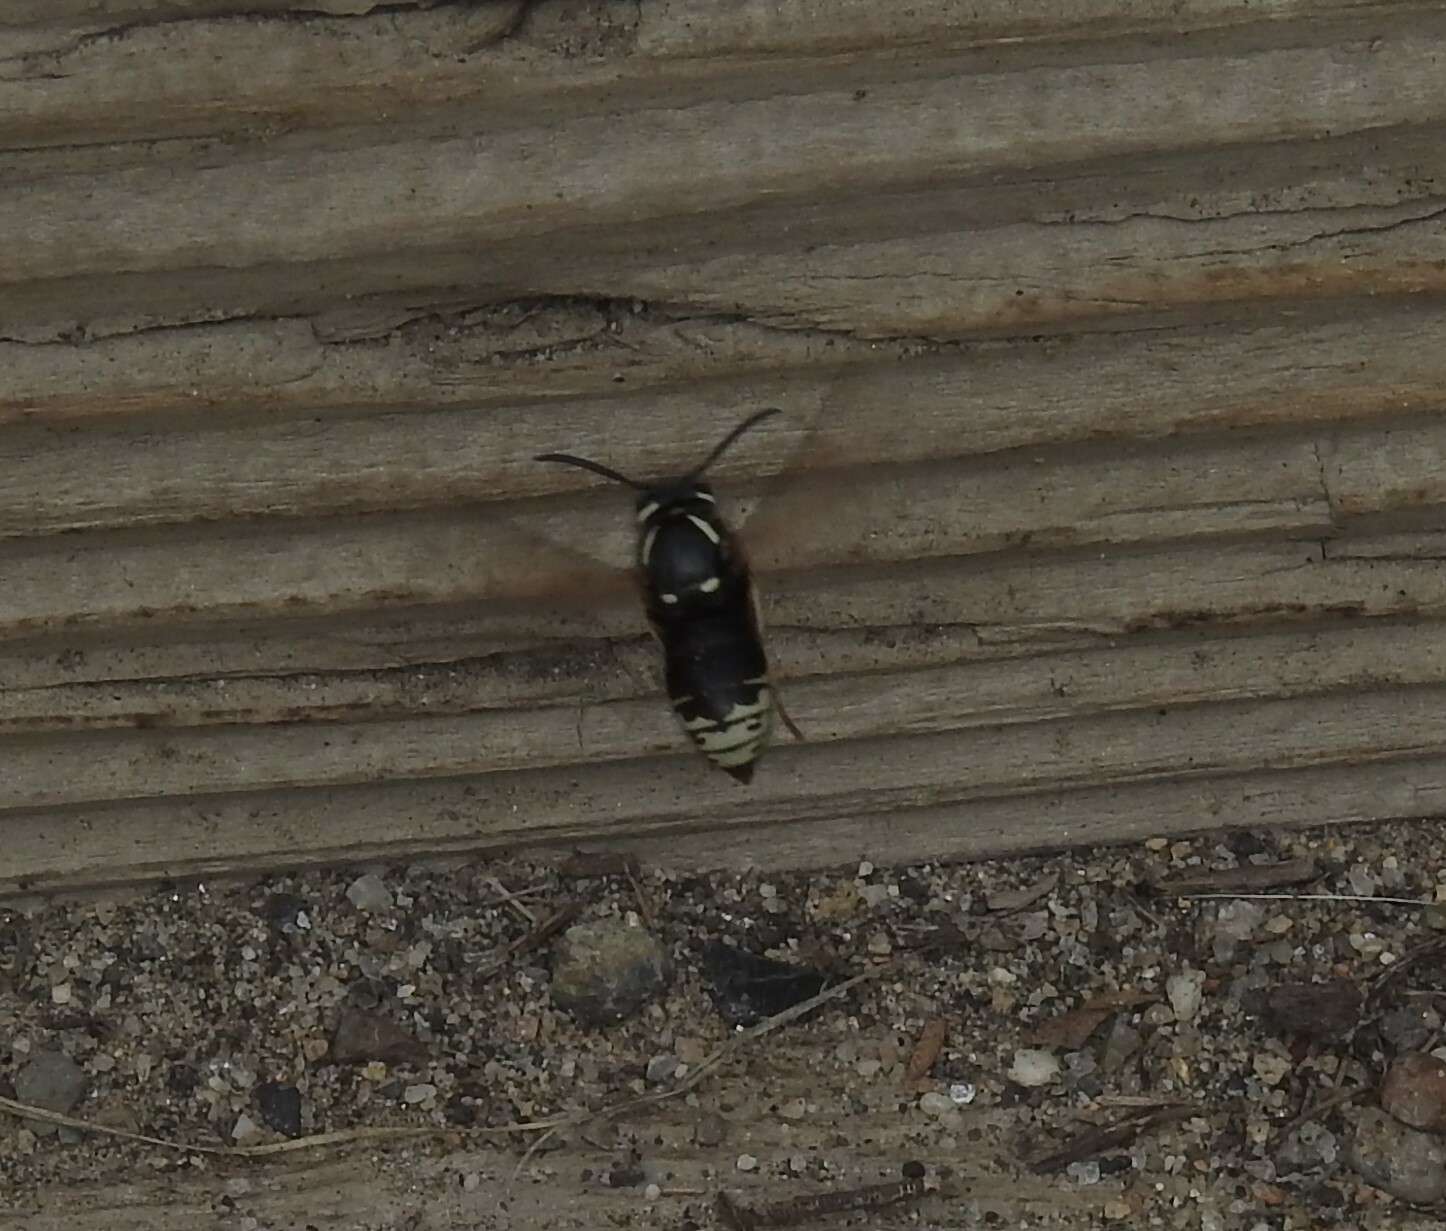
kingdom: Animalia
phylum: Arthropoda
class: Insecta
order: Hymenoptera
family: Vespidae
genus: Vespula
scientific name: Vespula consobrina
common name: Blackjacket
